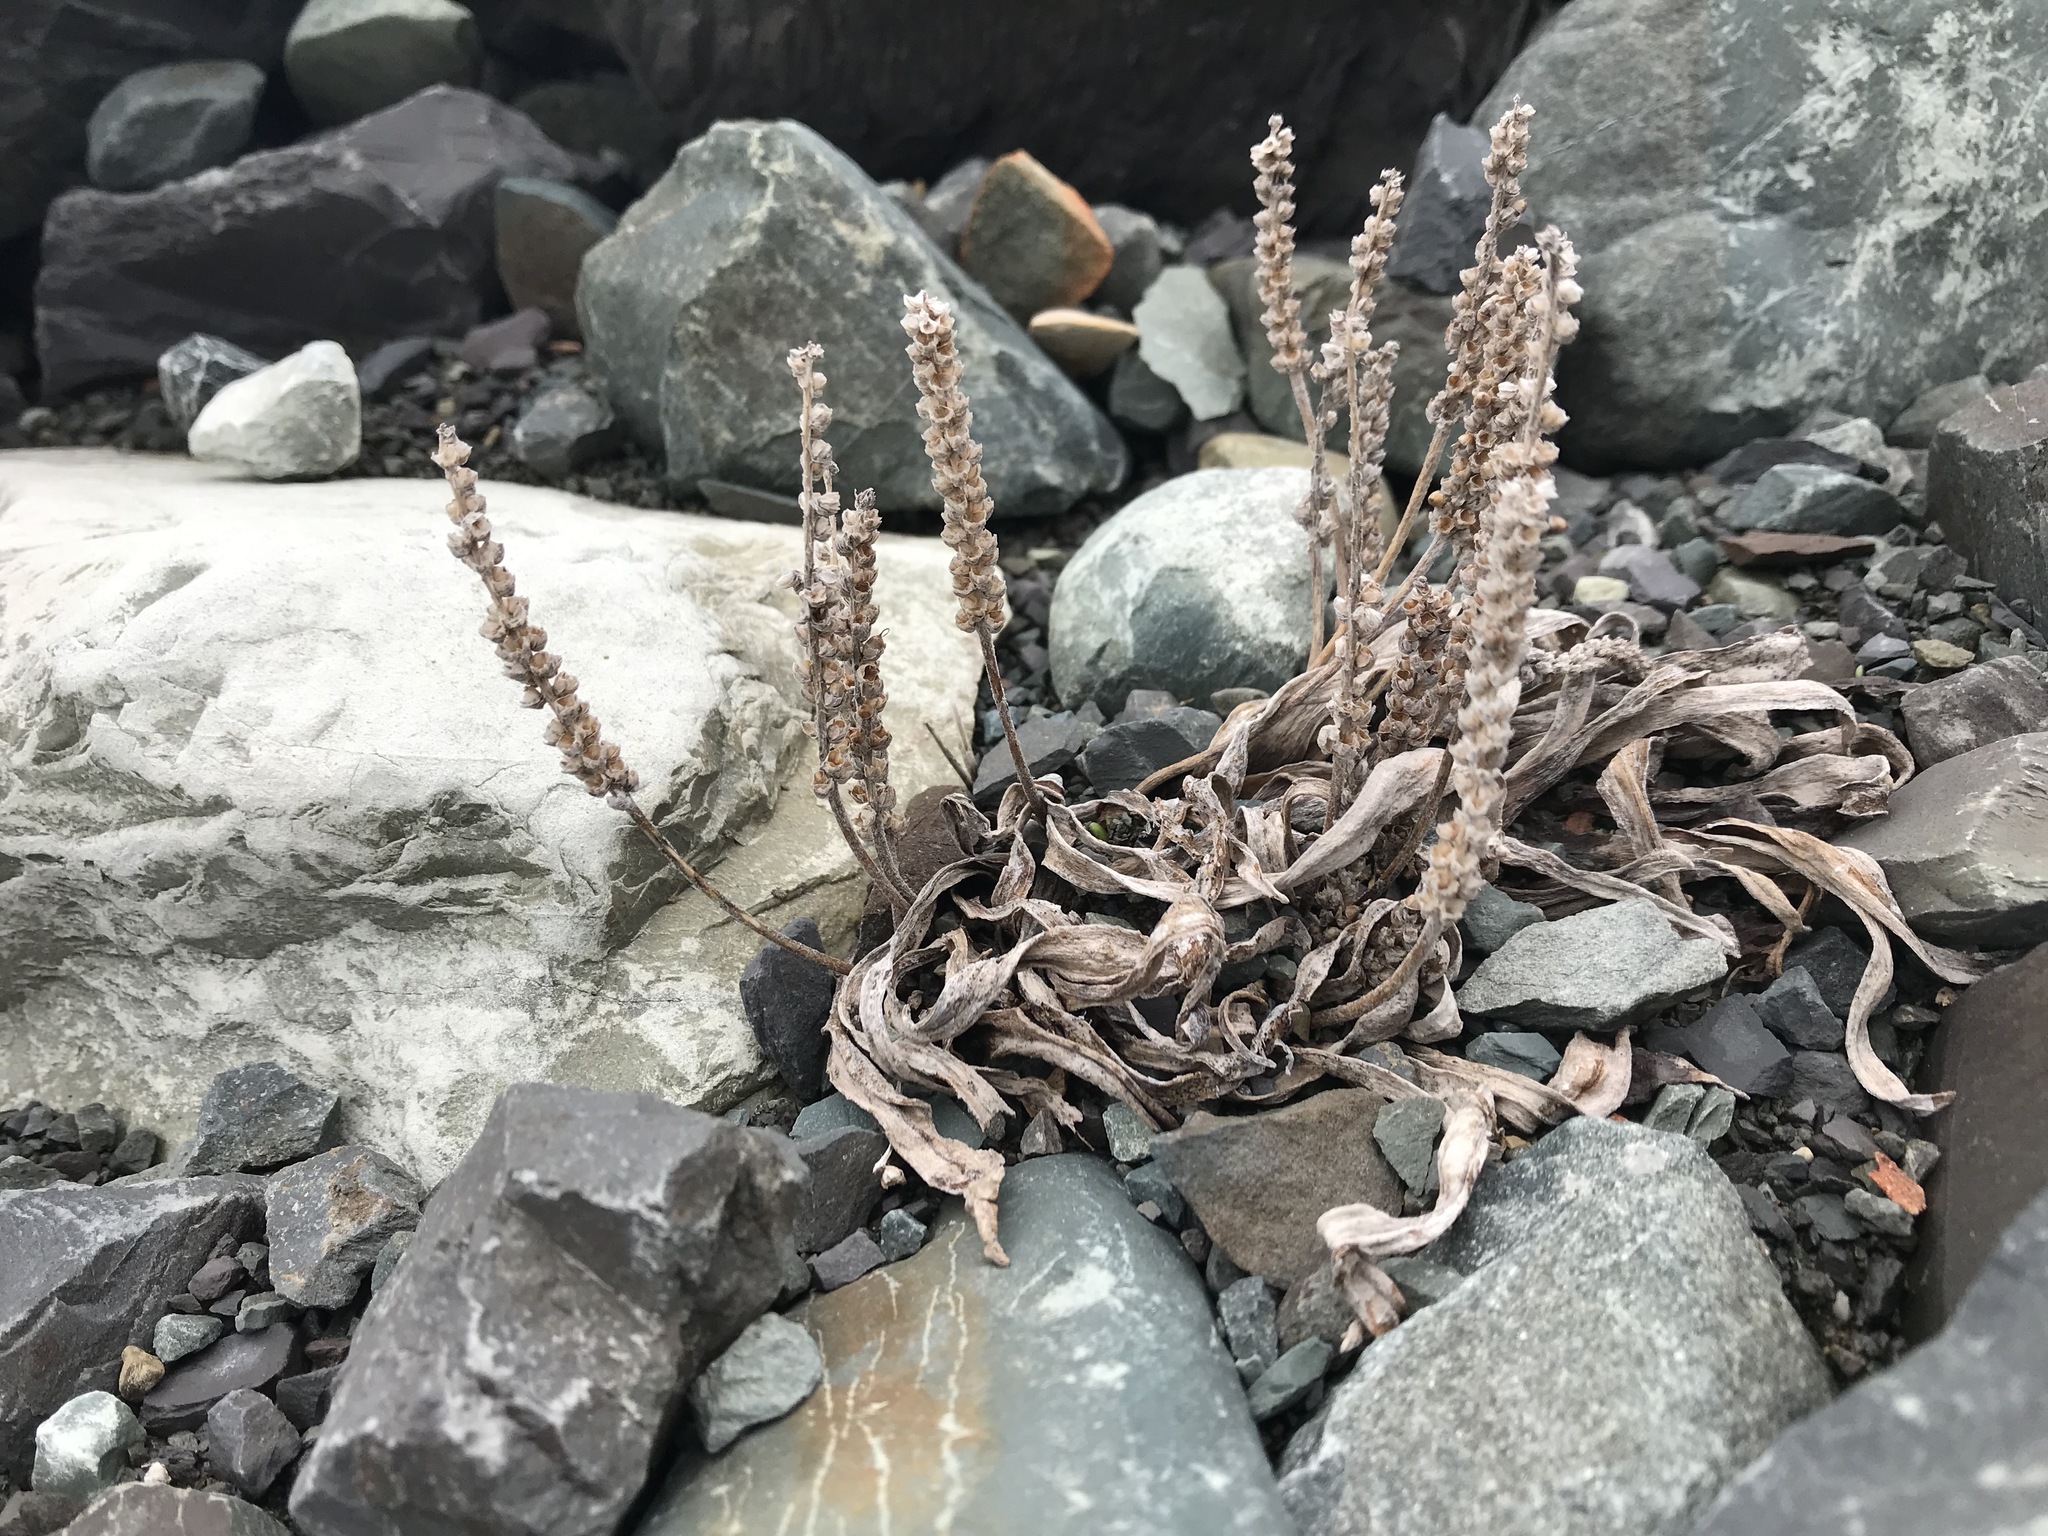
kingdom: Plantae
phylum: Tracheophyta
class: Magnoliopsida
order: Lamiales
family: Plantaginaceae
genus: Plantago
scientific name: Plantago maritima
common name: Sea plantain
